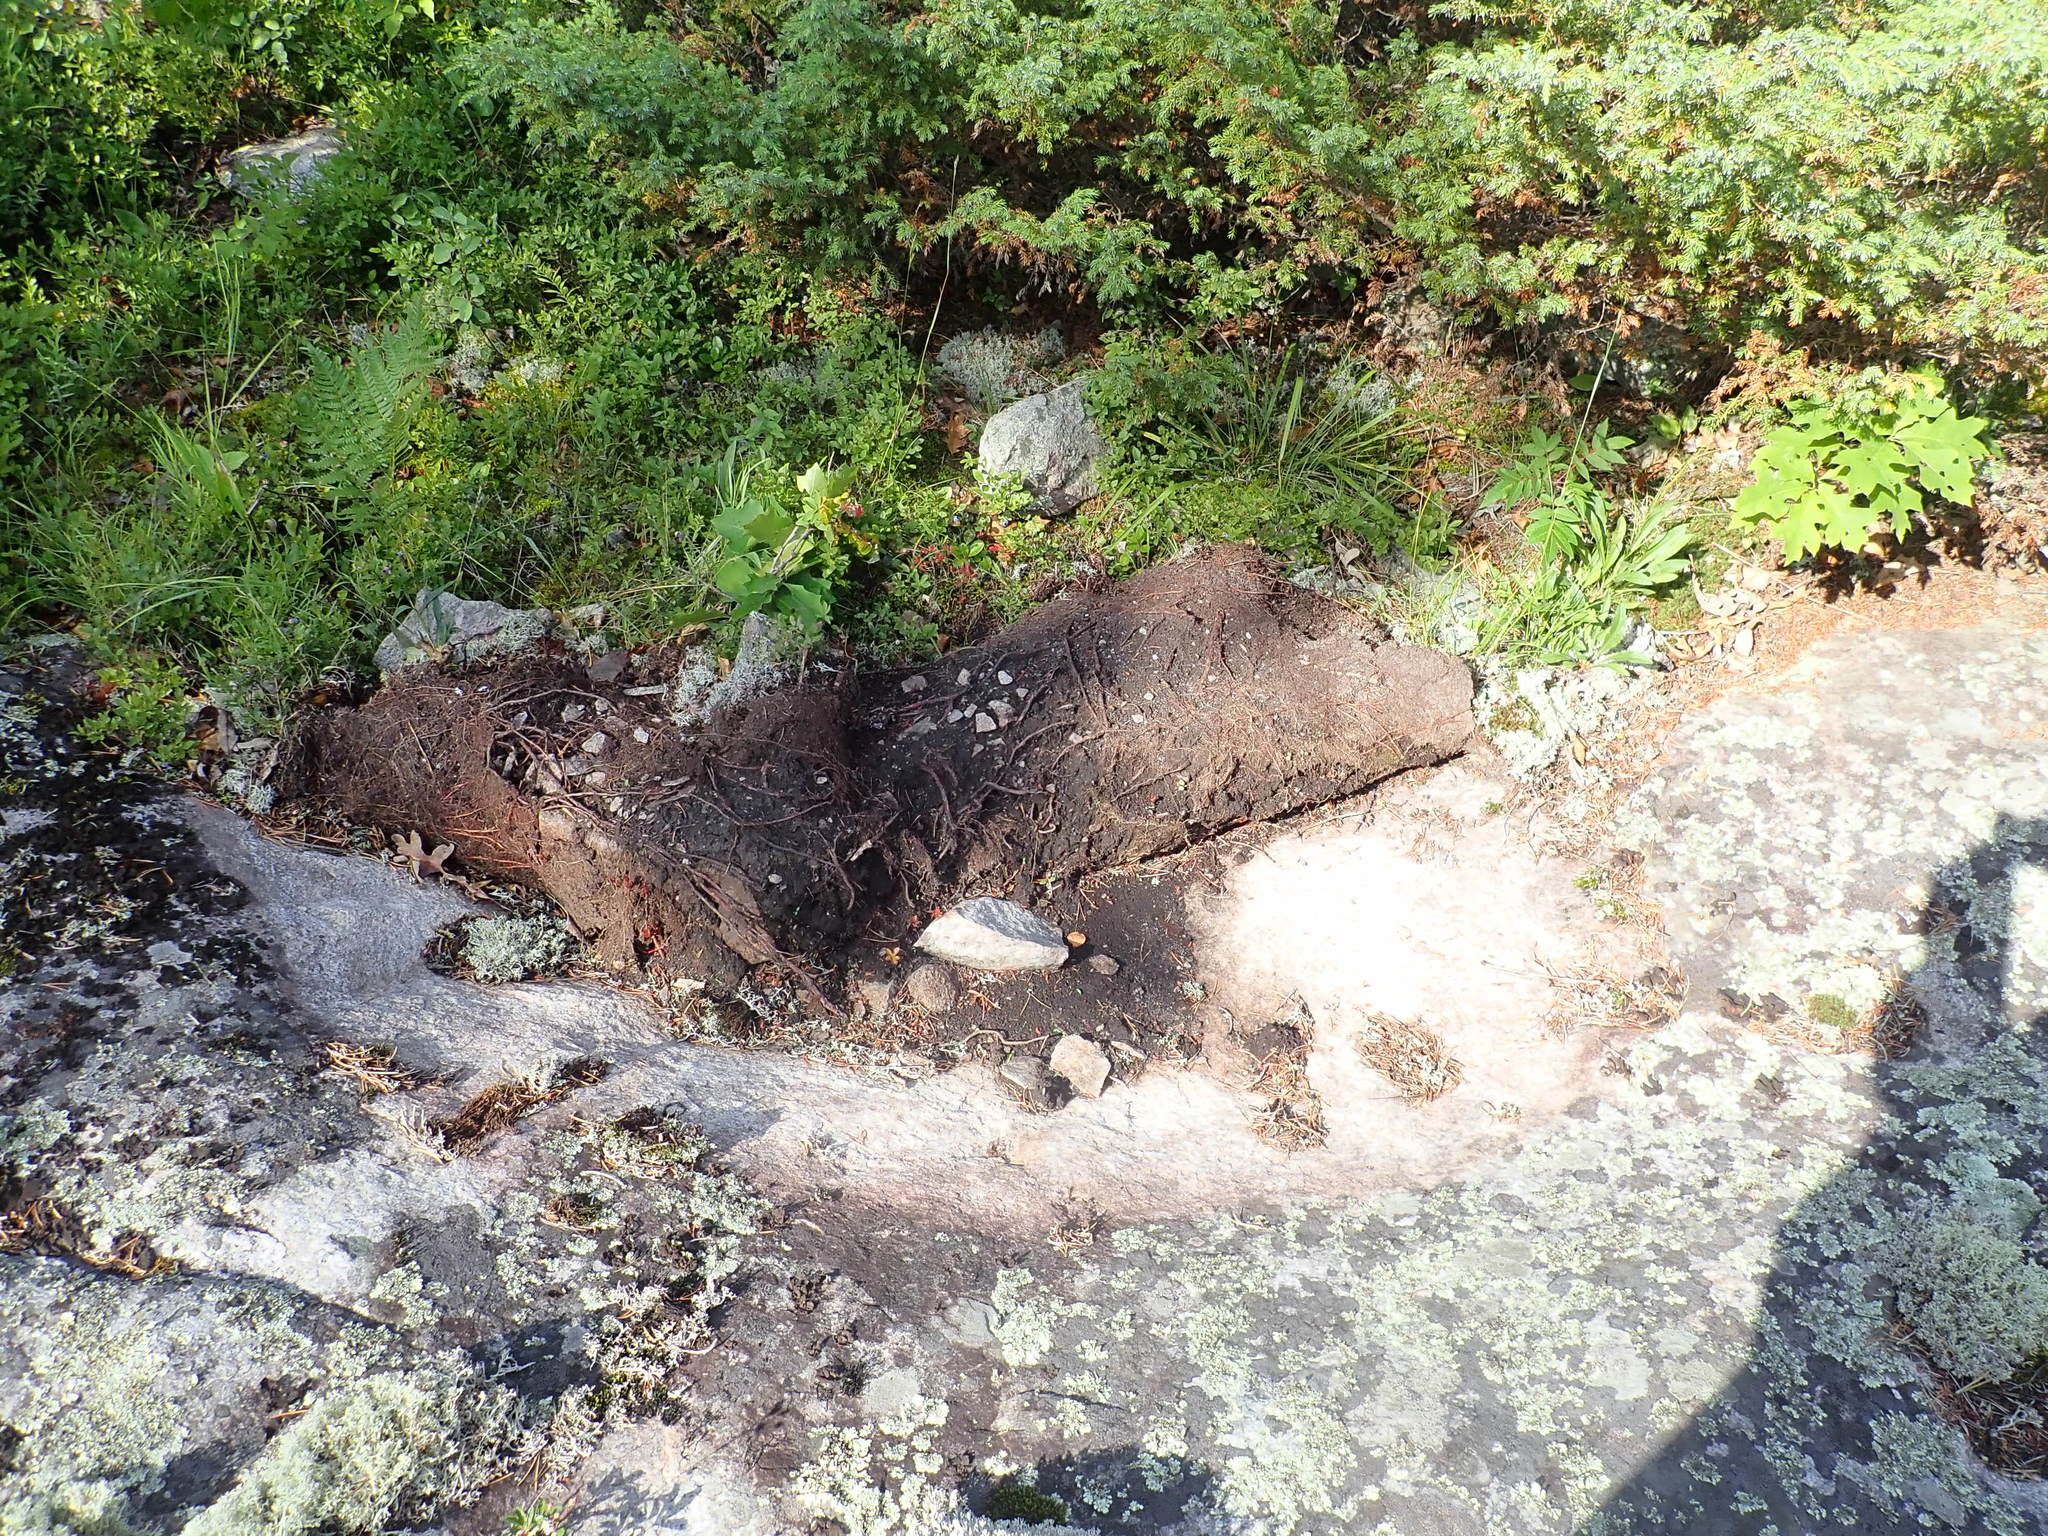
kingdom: Animalia
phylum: Chordata
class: Mammalia
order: Carnivora
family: Ursidae
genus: Ursus
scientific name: Ursus americanus
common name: American black bear
